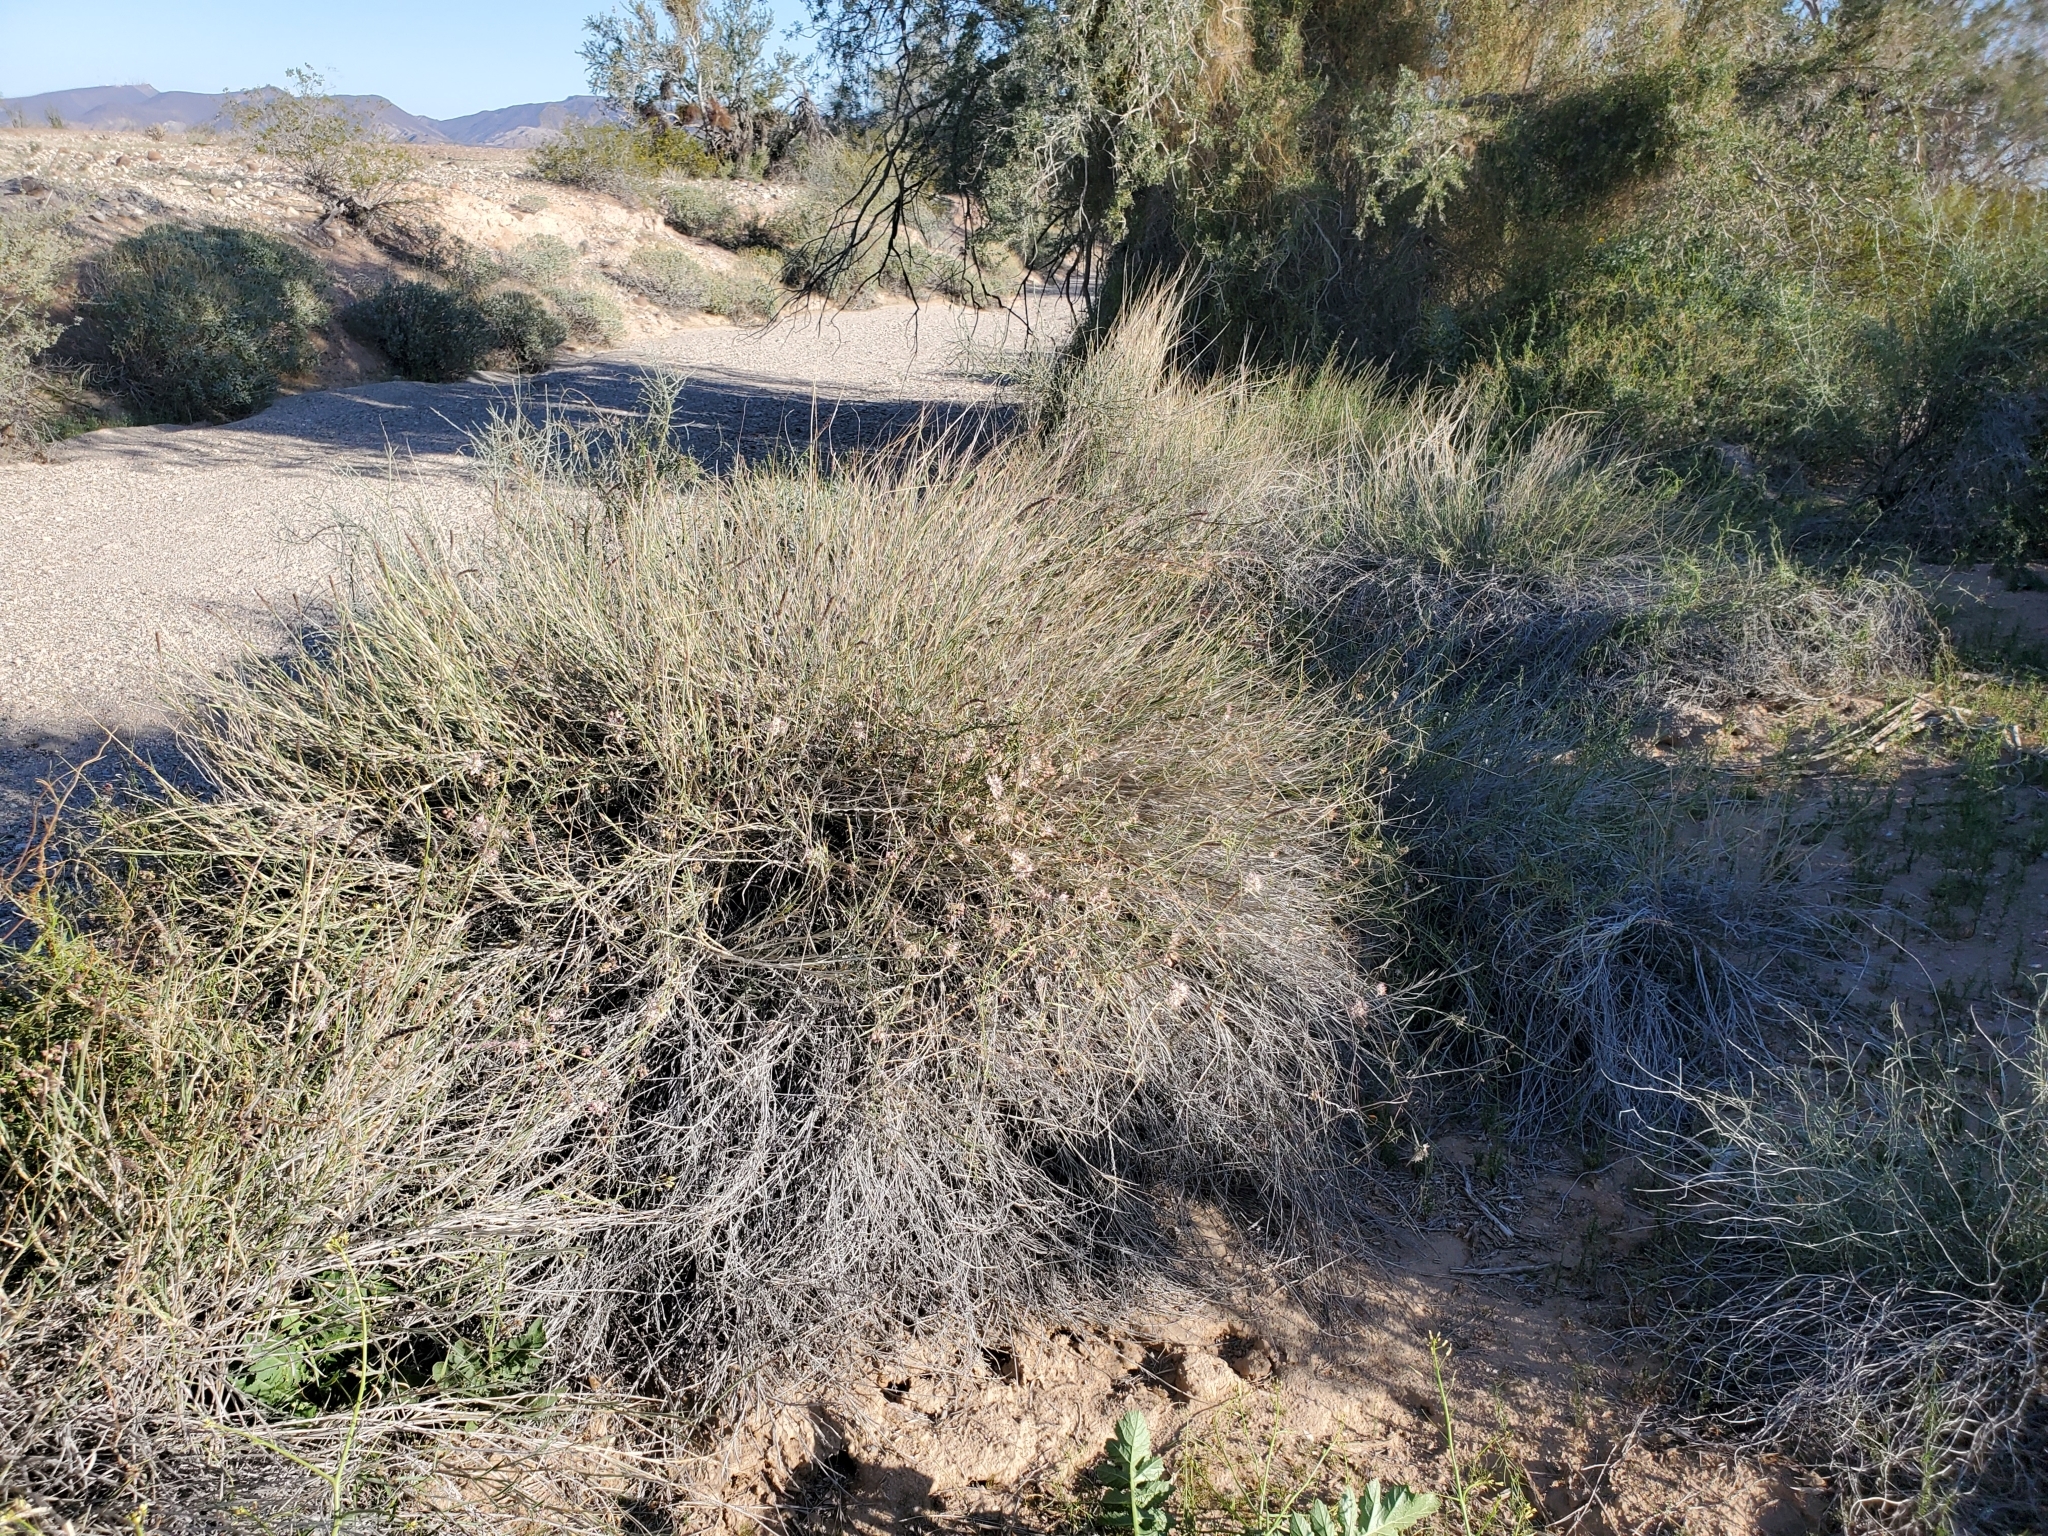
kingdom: Plantae
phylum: Tracheophyta
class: Liliopsida
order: Poales
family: Poaceae
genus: Hilaria
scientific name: Hilaria rigida
